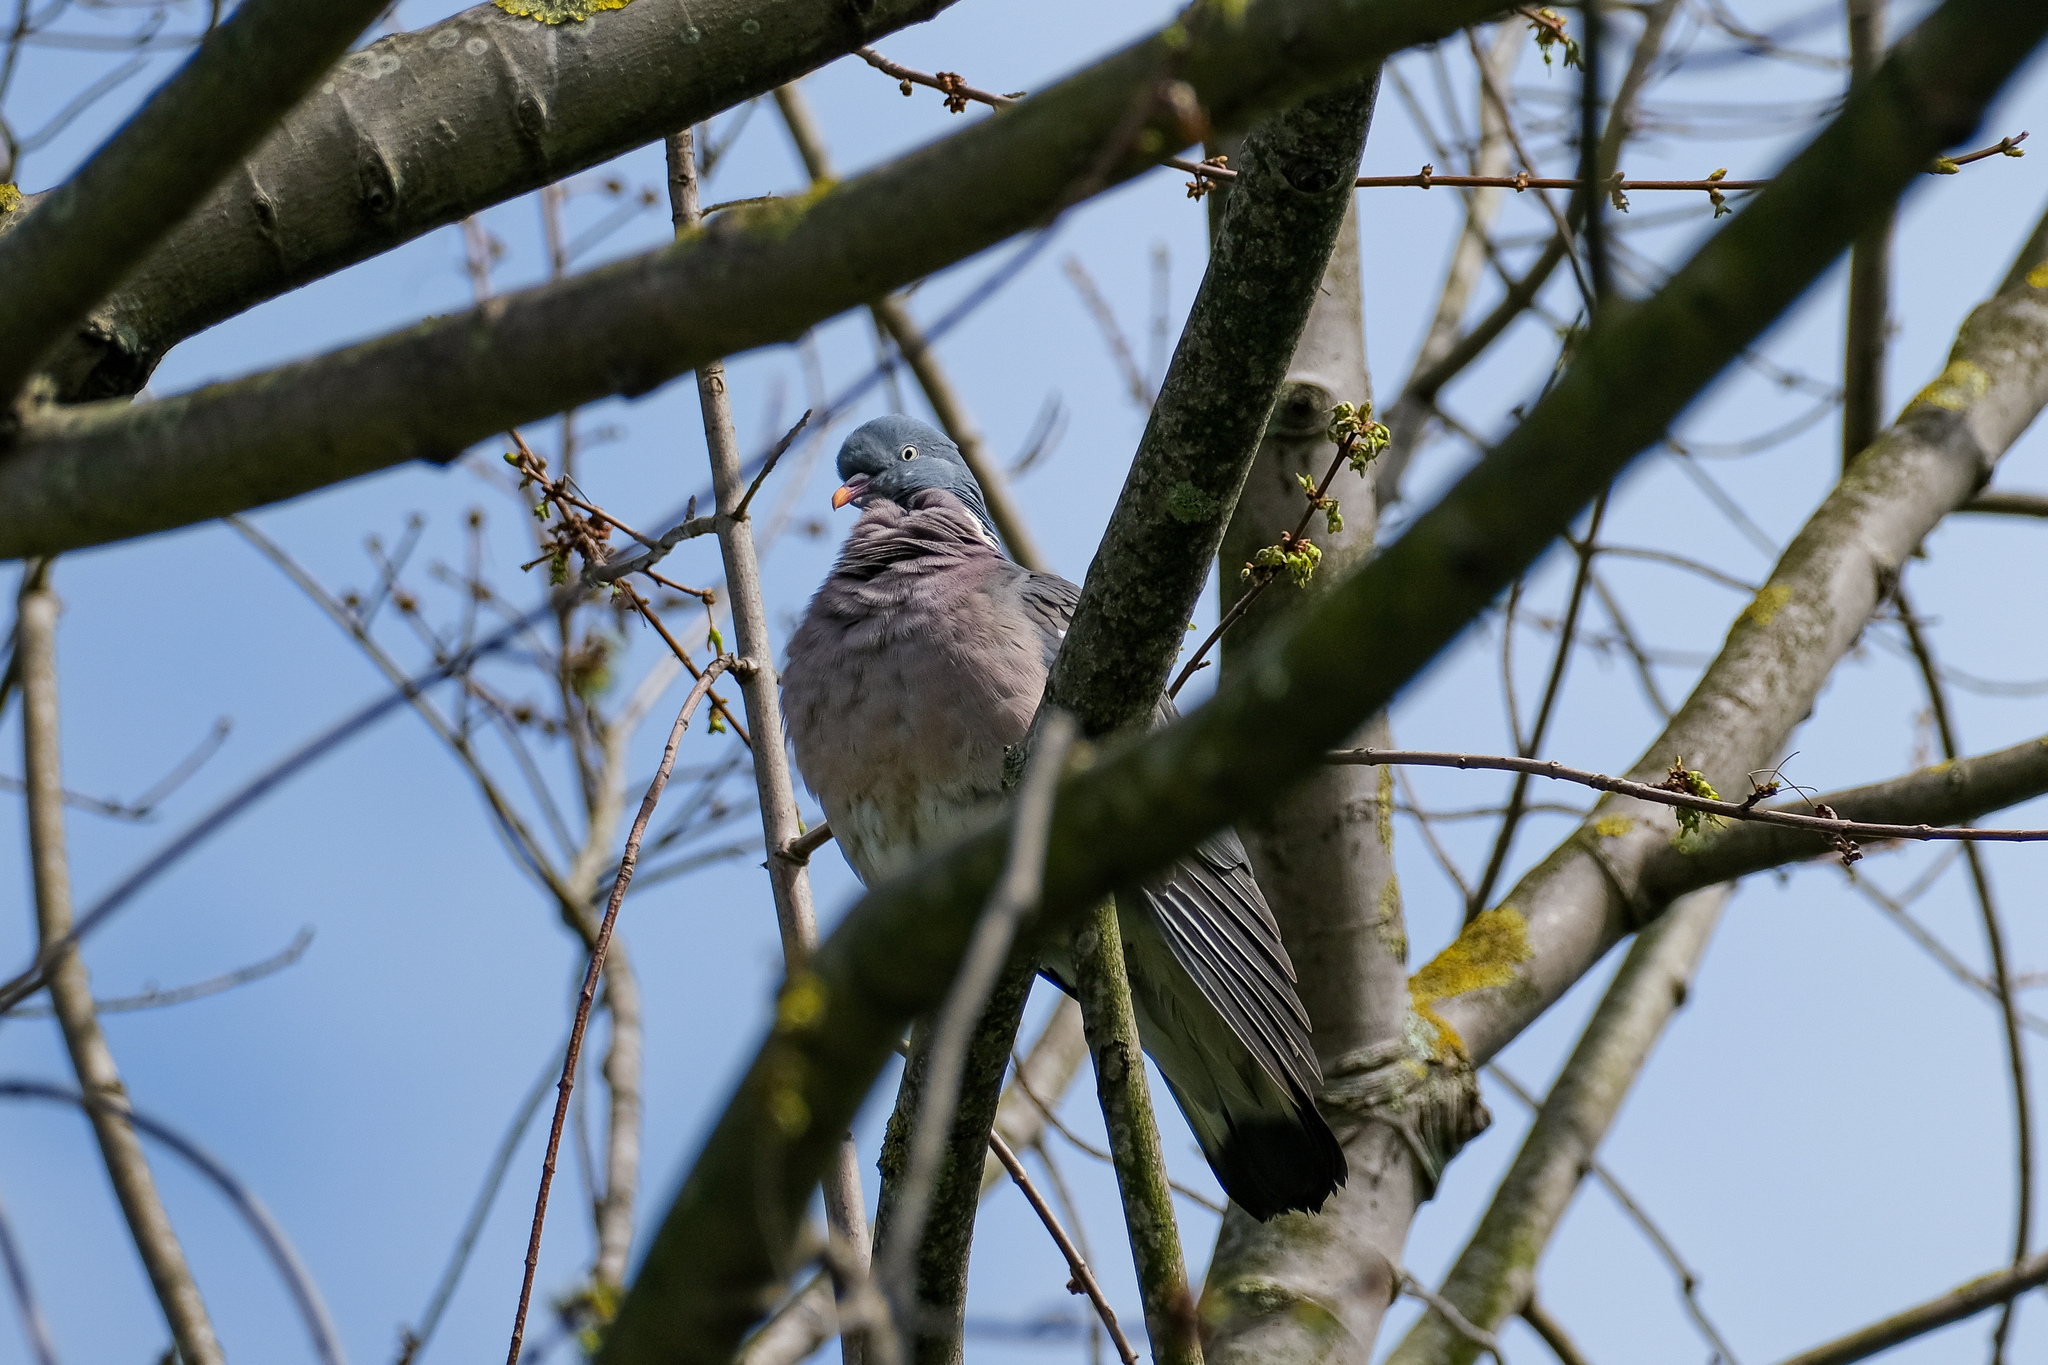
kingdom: Animalia
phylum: Chordata
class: Aves
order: Columbiformes
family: Columbidae
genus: Columba
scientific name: Columba palumbus
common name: Common wood pigeon
